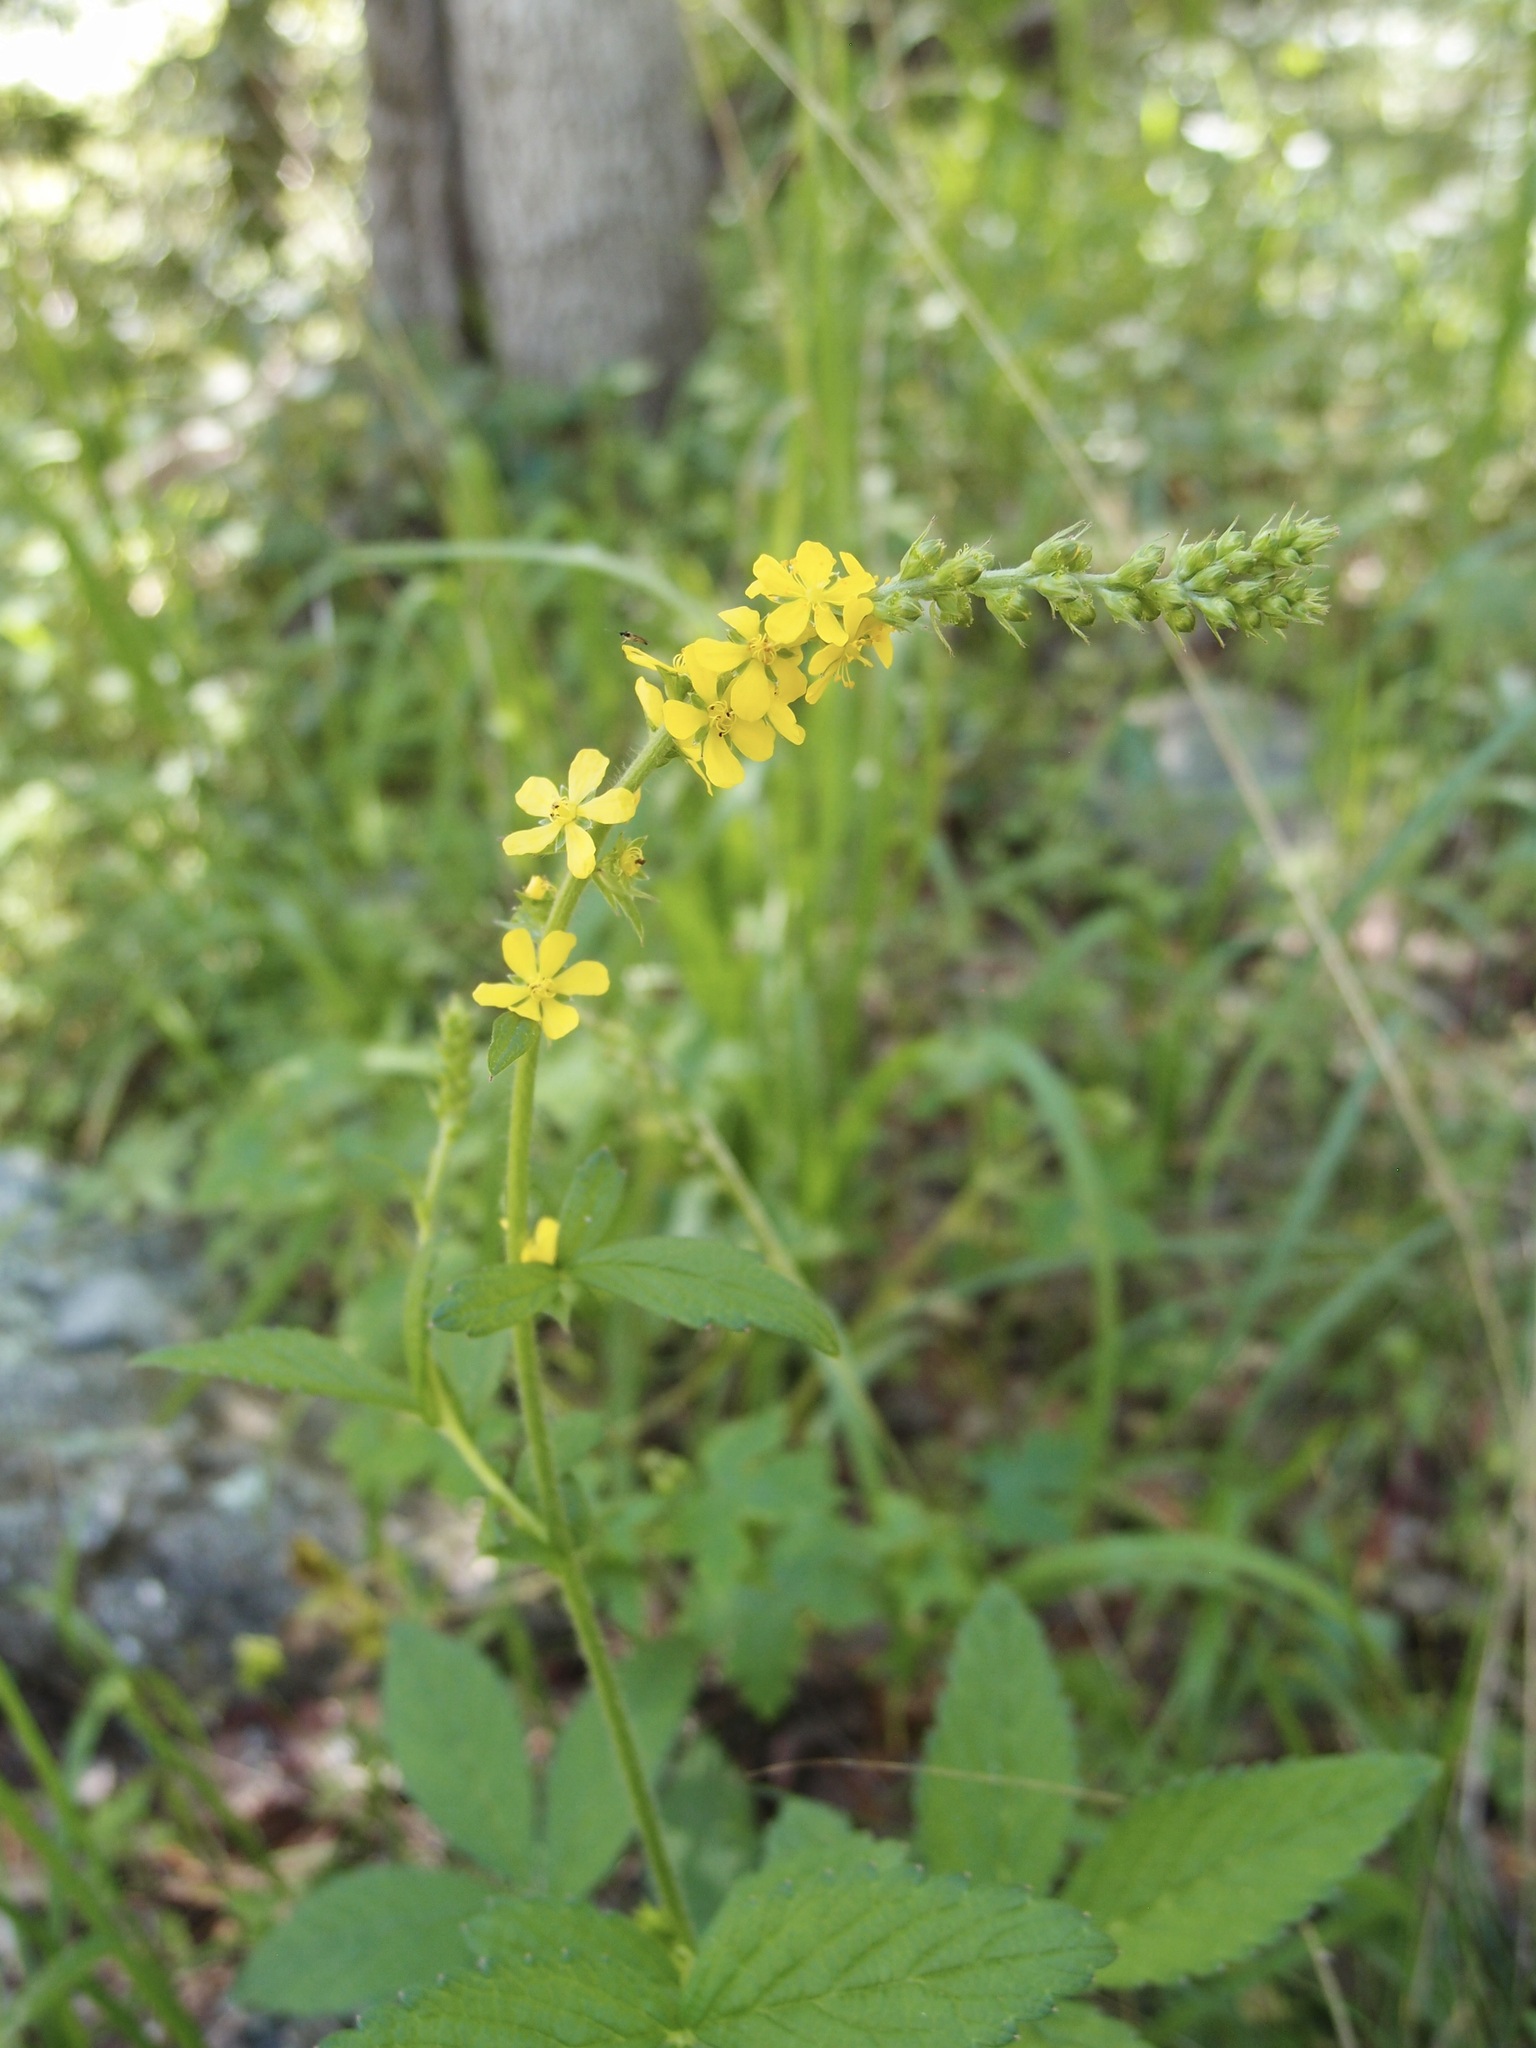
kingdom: Plantae
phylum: Tracheophyta
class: Magnoliopsida
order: Rosales
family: Rosaceae
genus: Agrimonia
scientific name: Agrimonia striata
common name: Britton's agrimony
